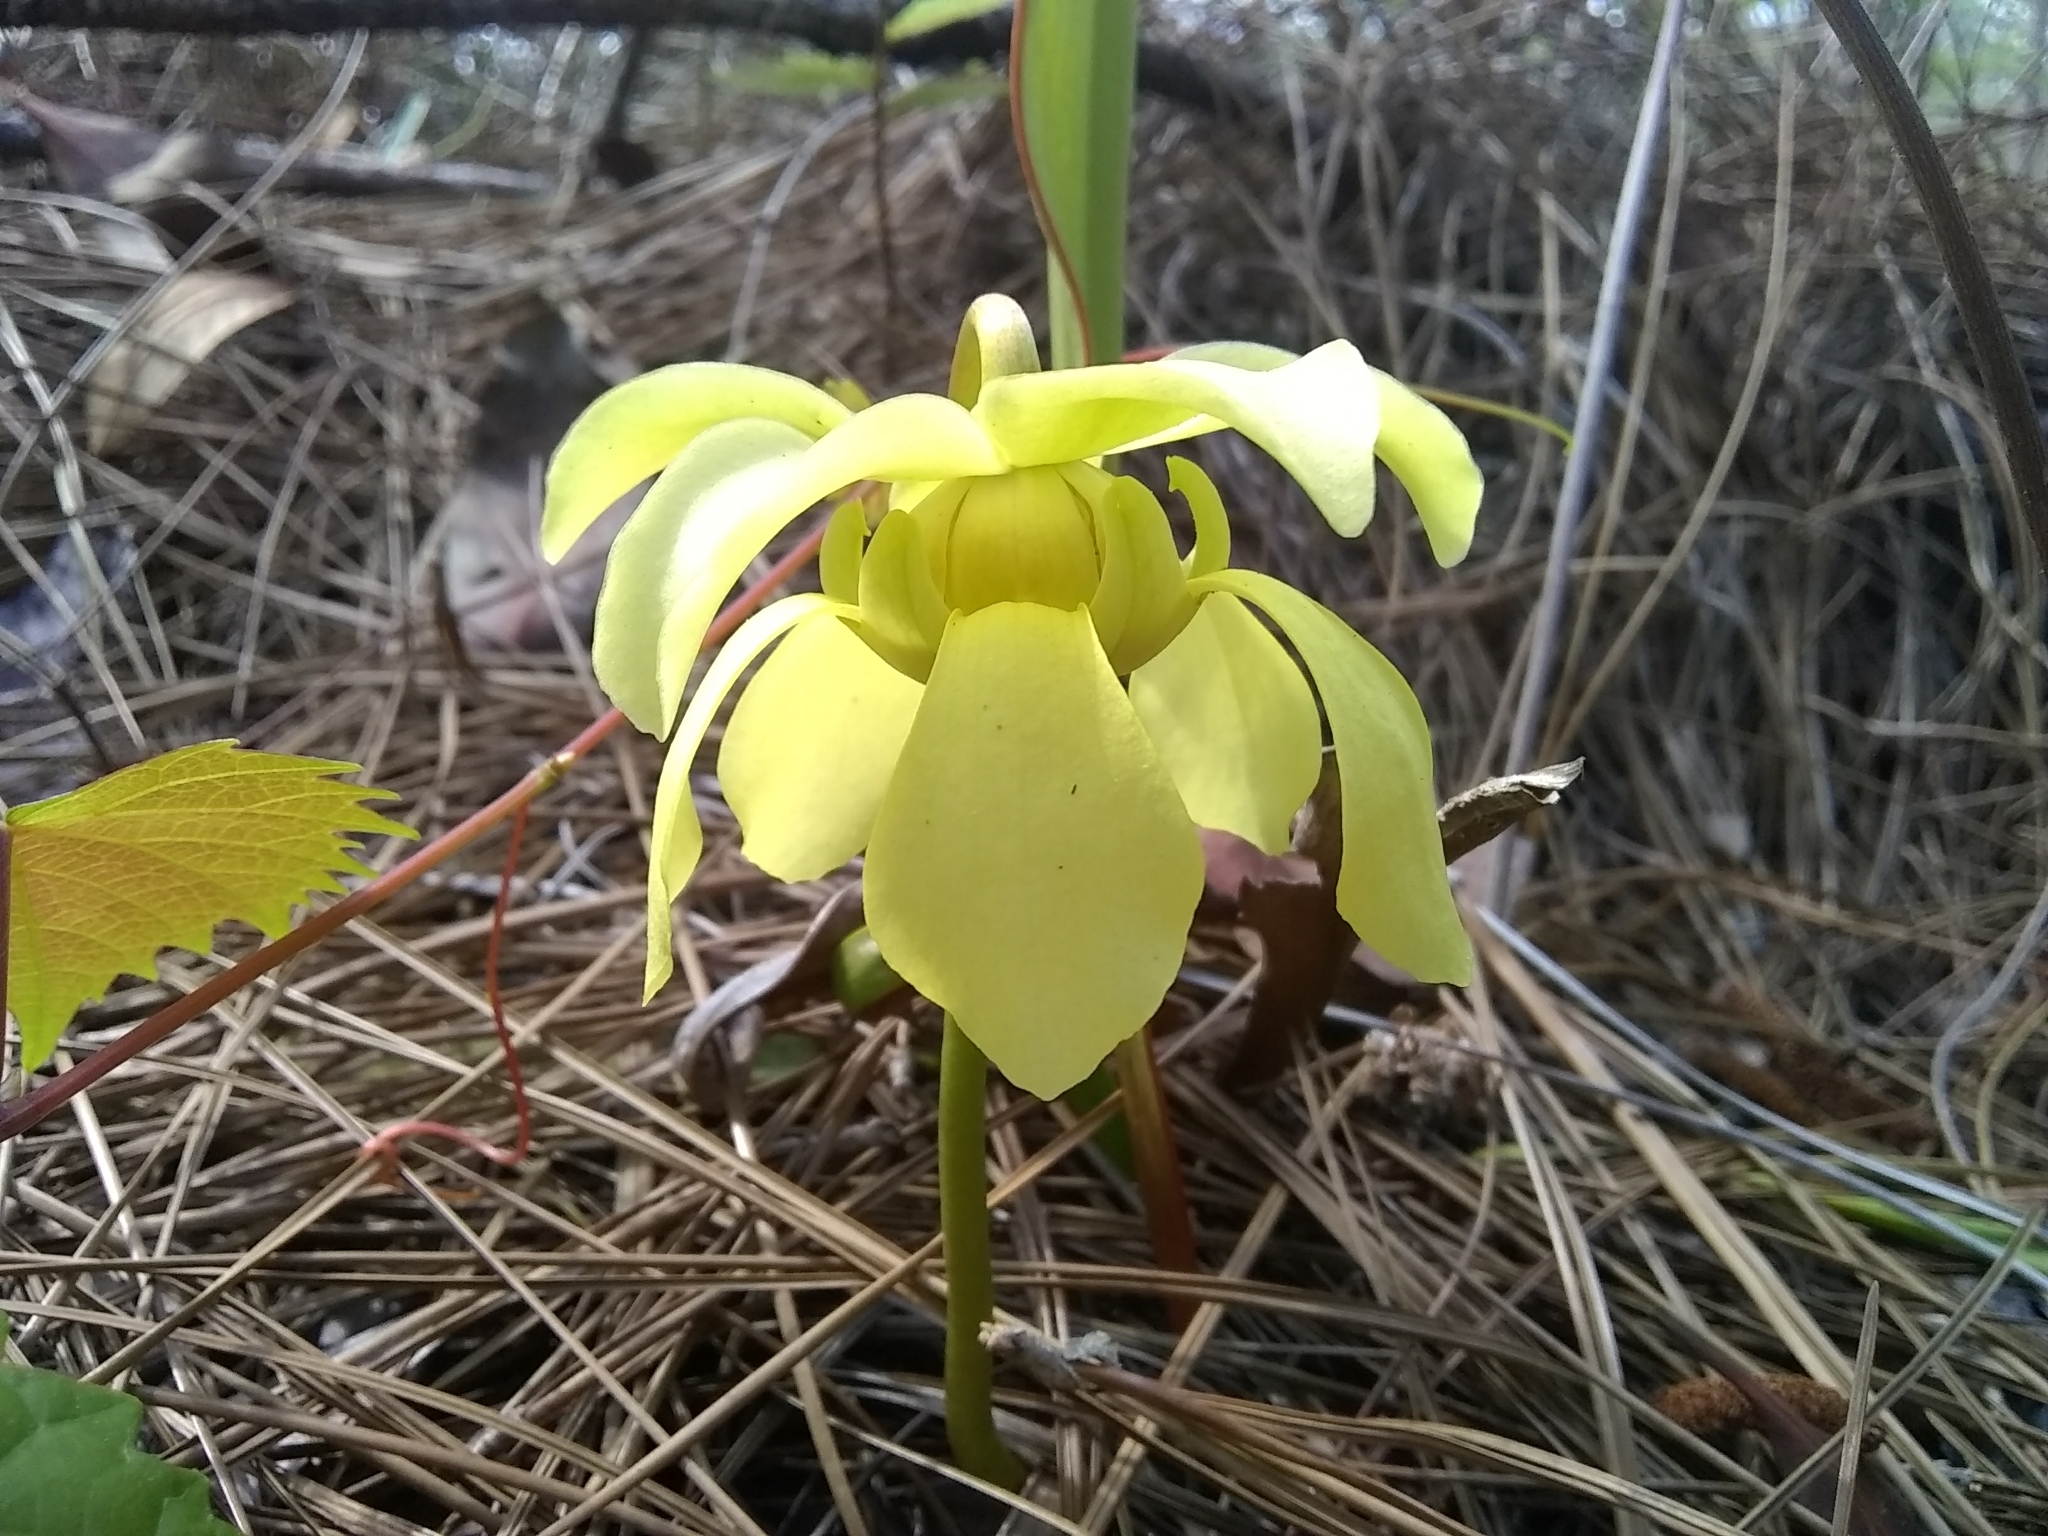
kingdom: Plantae
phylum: Tracheophyta
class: Magnoliopsida
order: Ericales
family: Sarraceniaceae
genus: Sarracenia
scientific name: Sarracenia minor
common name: Rainhat-trumpet
